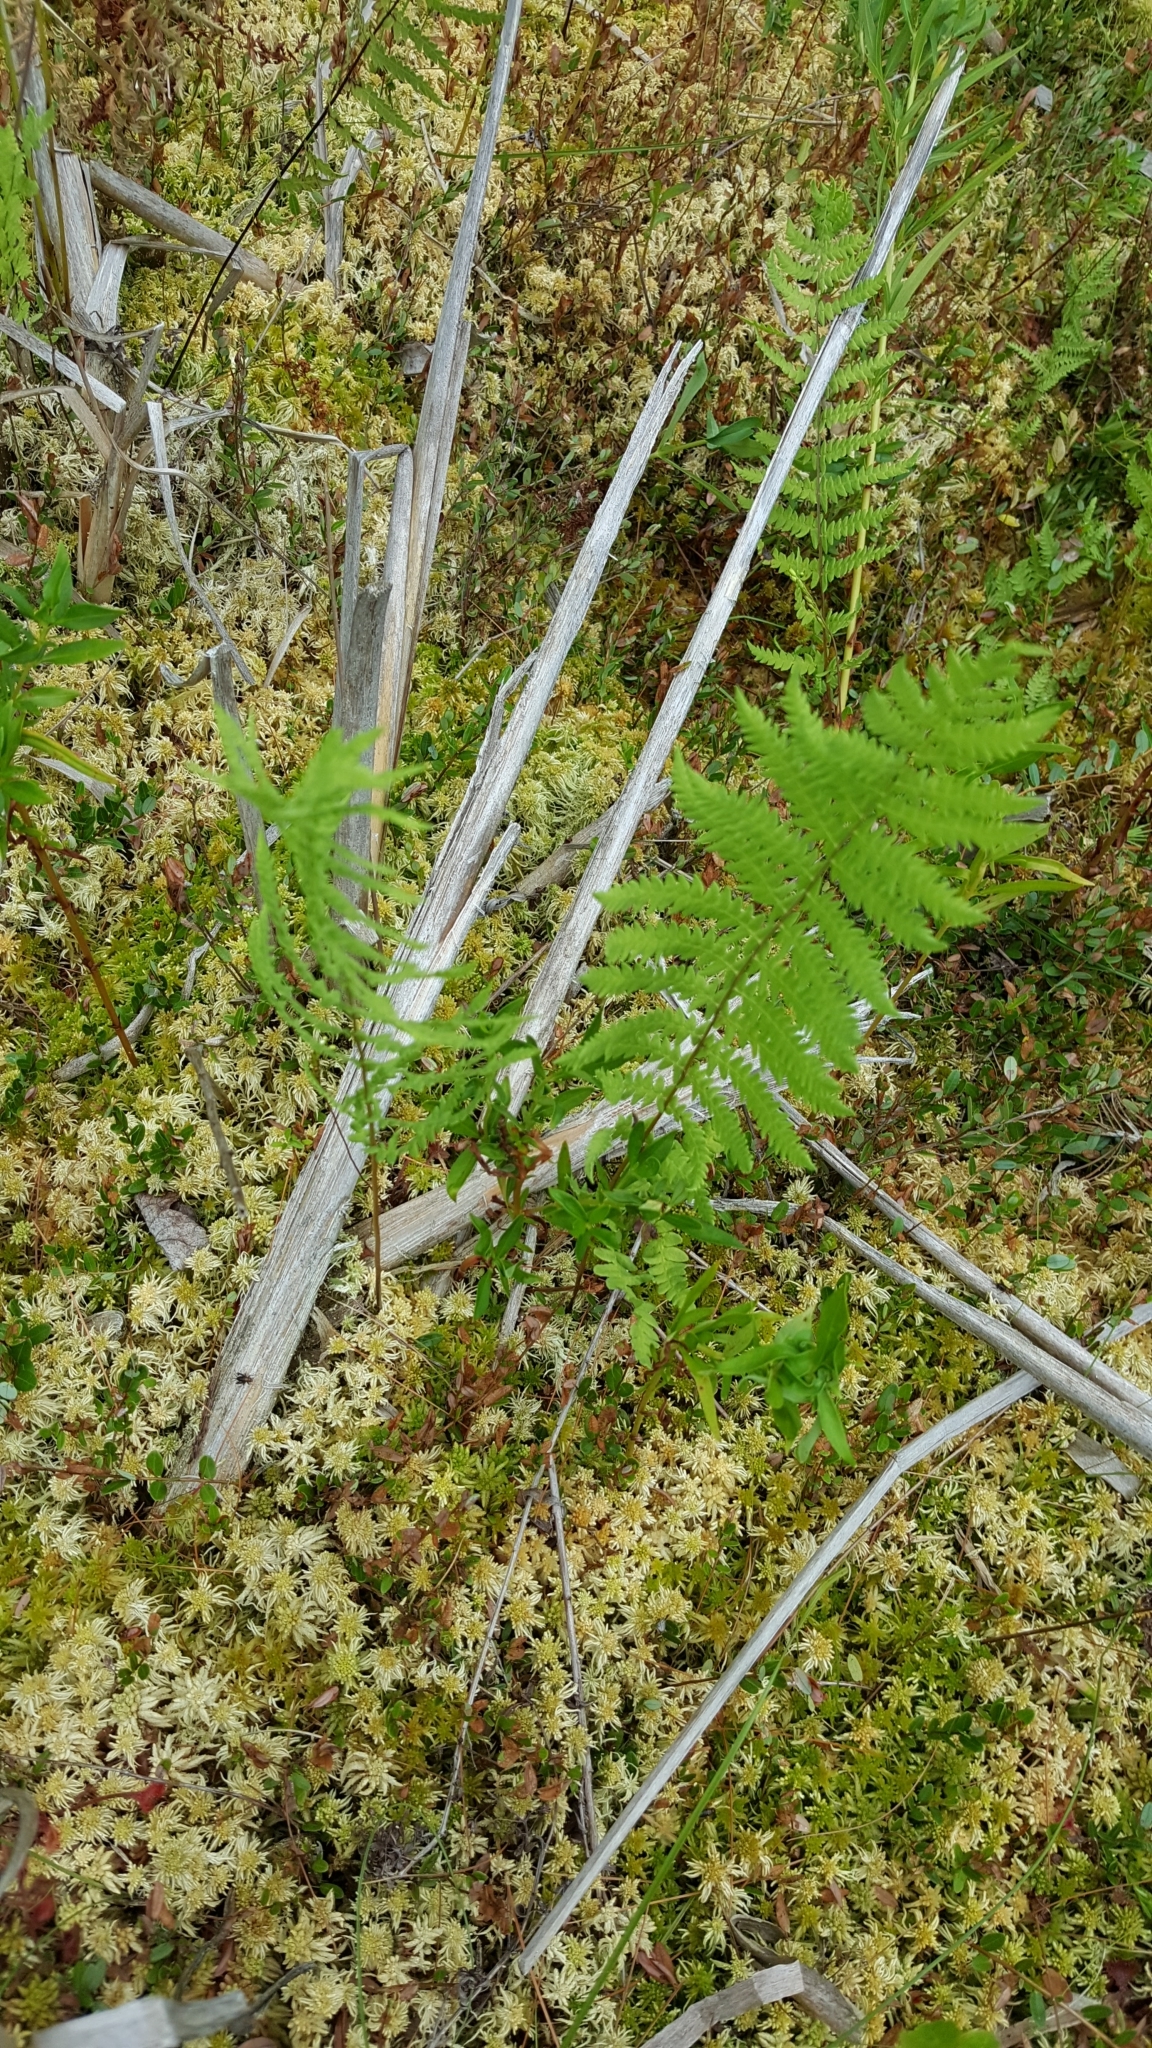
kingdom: Plantae
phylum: Tracheophyta
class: Polypodiopsida
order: Polypodiales
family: Thelypteridaceae
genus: Thelypteris
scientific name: Thelypteris palustris
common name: Marsh fern
